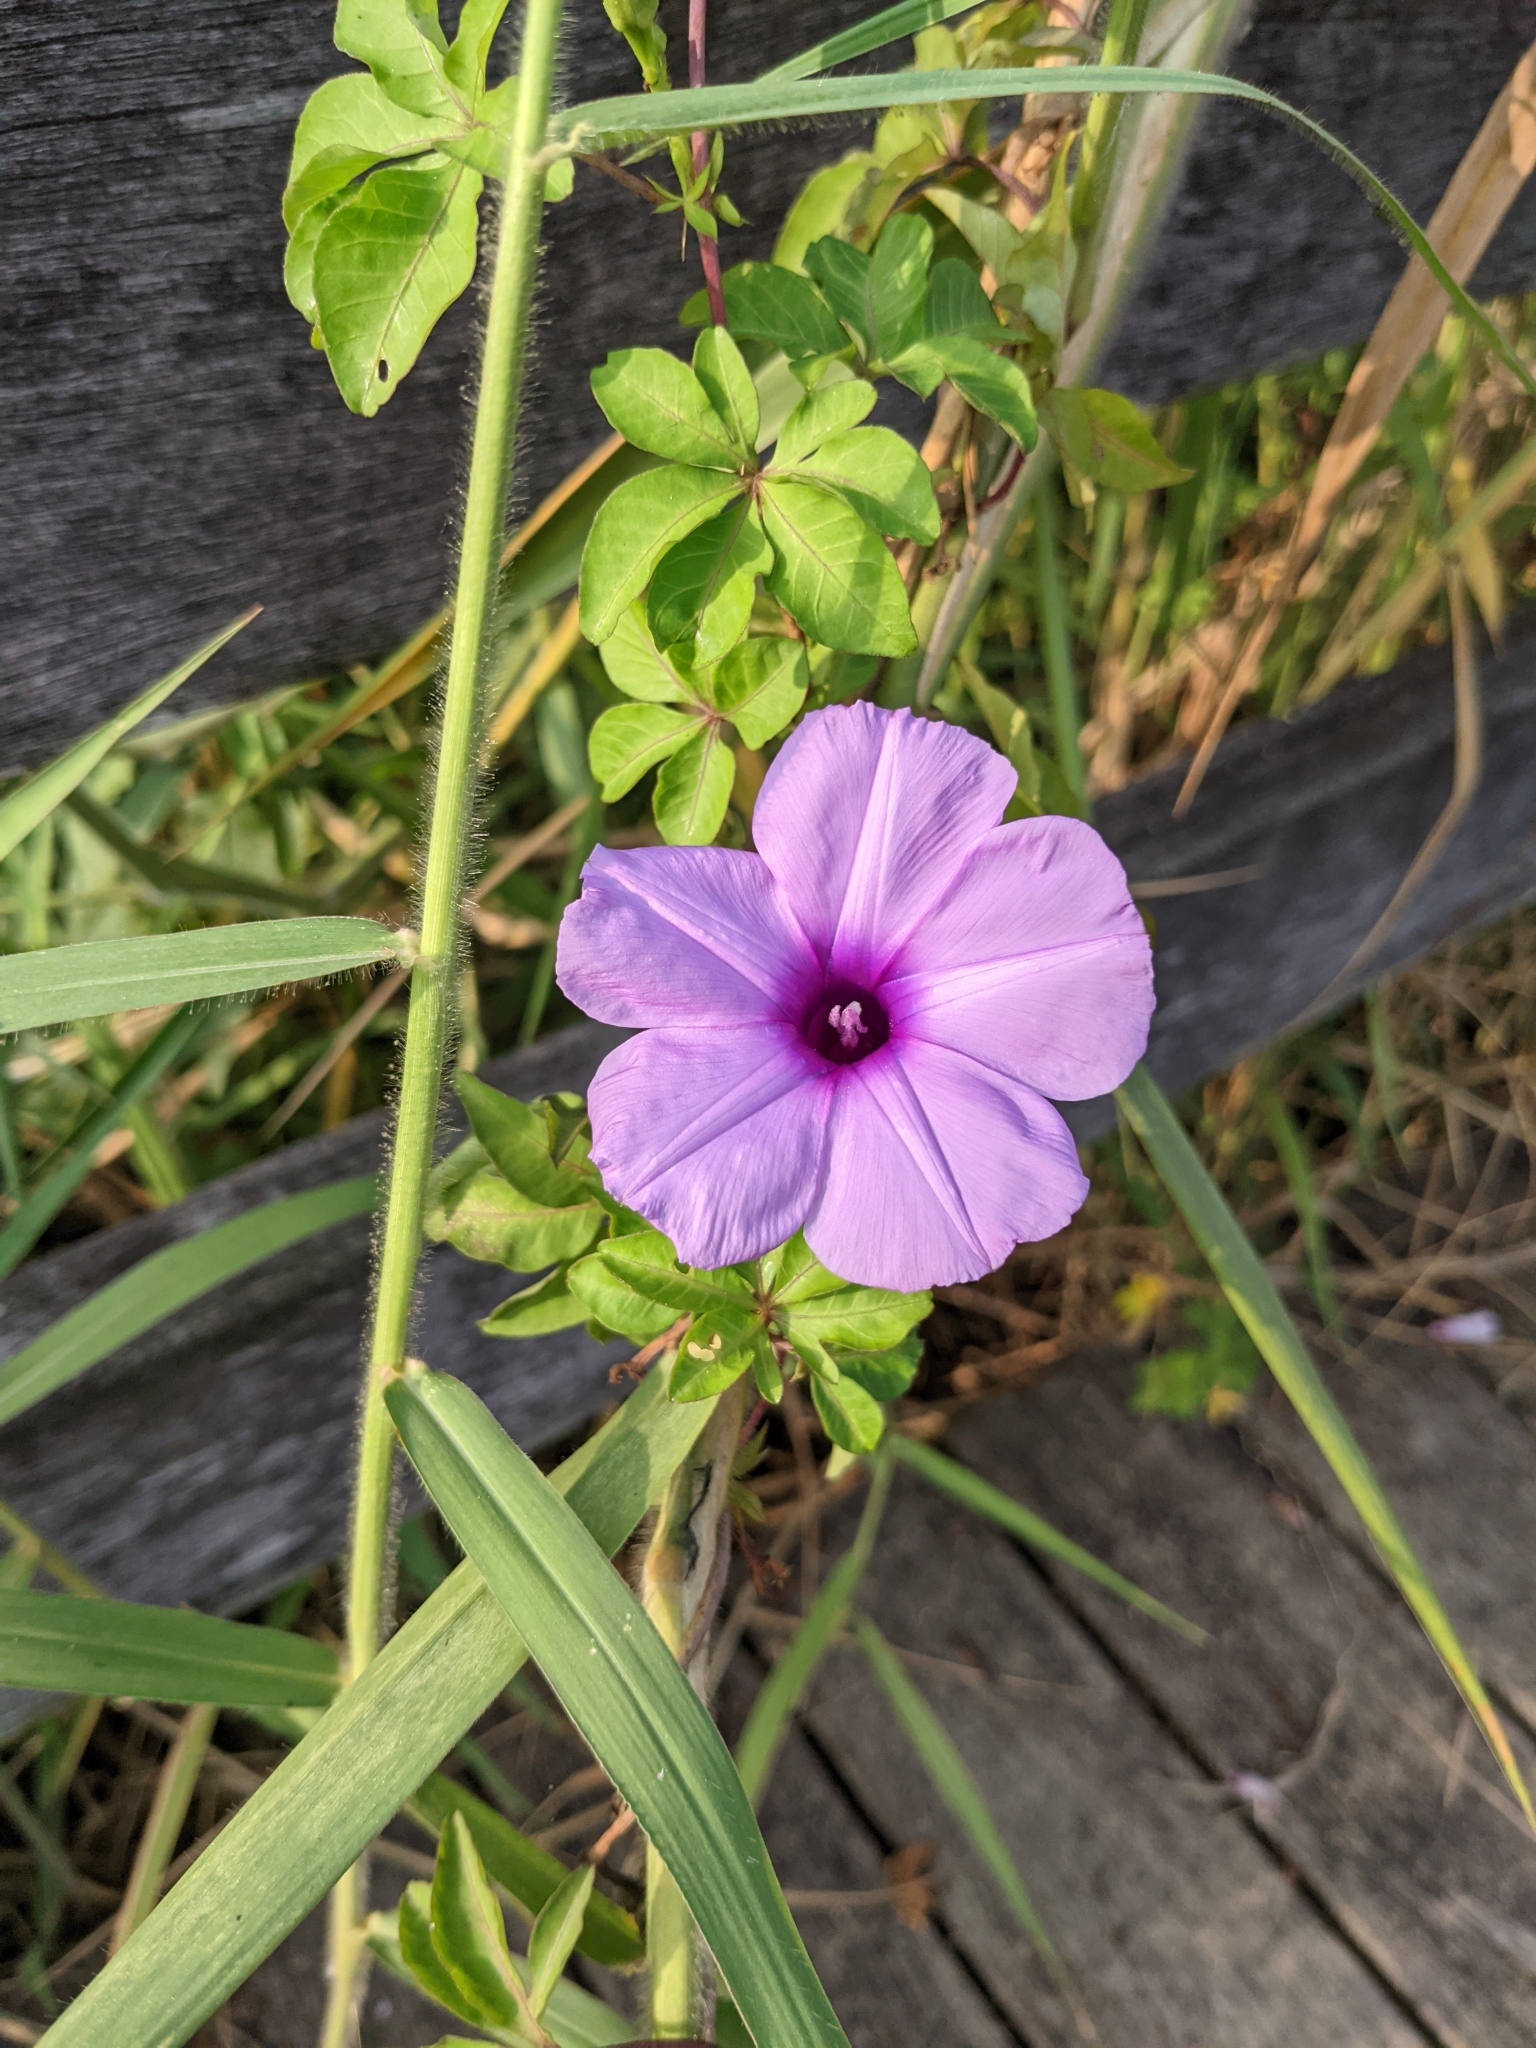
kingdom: Plantae
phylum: Tracheophyta
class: Magnoliopsida
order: Solanales
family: Convolvulaceae
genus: Ipomoea
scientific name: Ipomoea cairica
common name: Mile a minute vine
